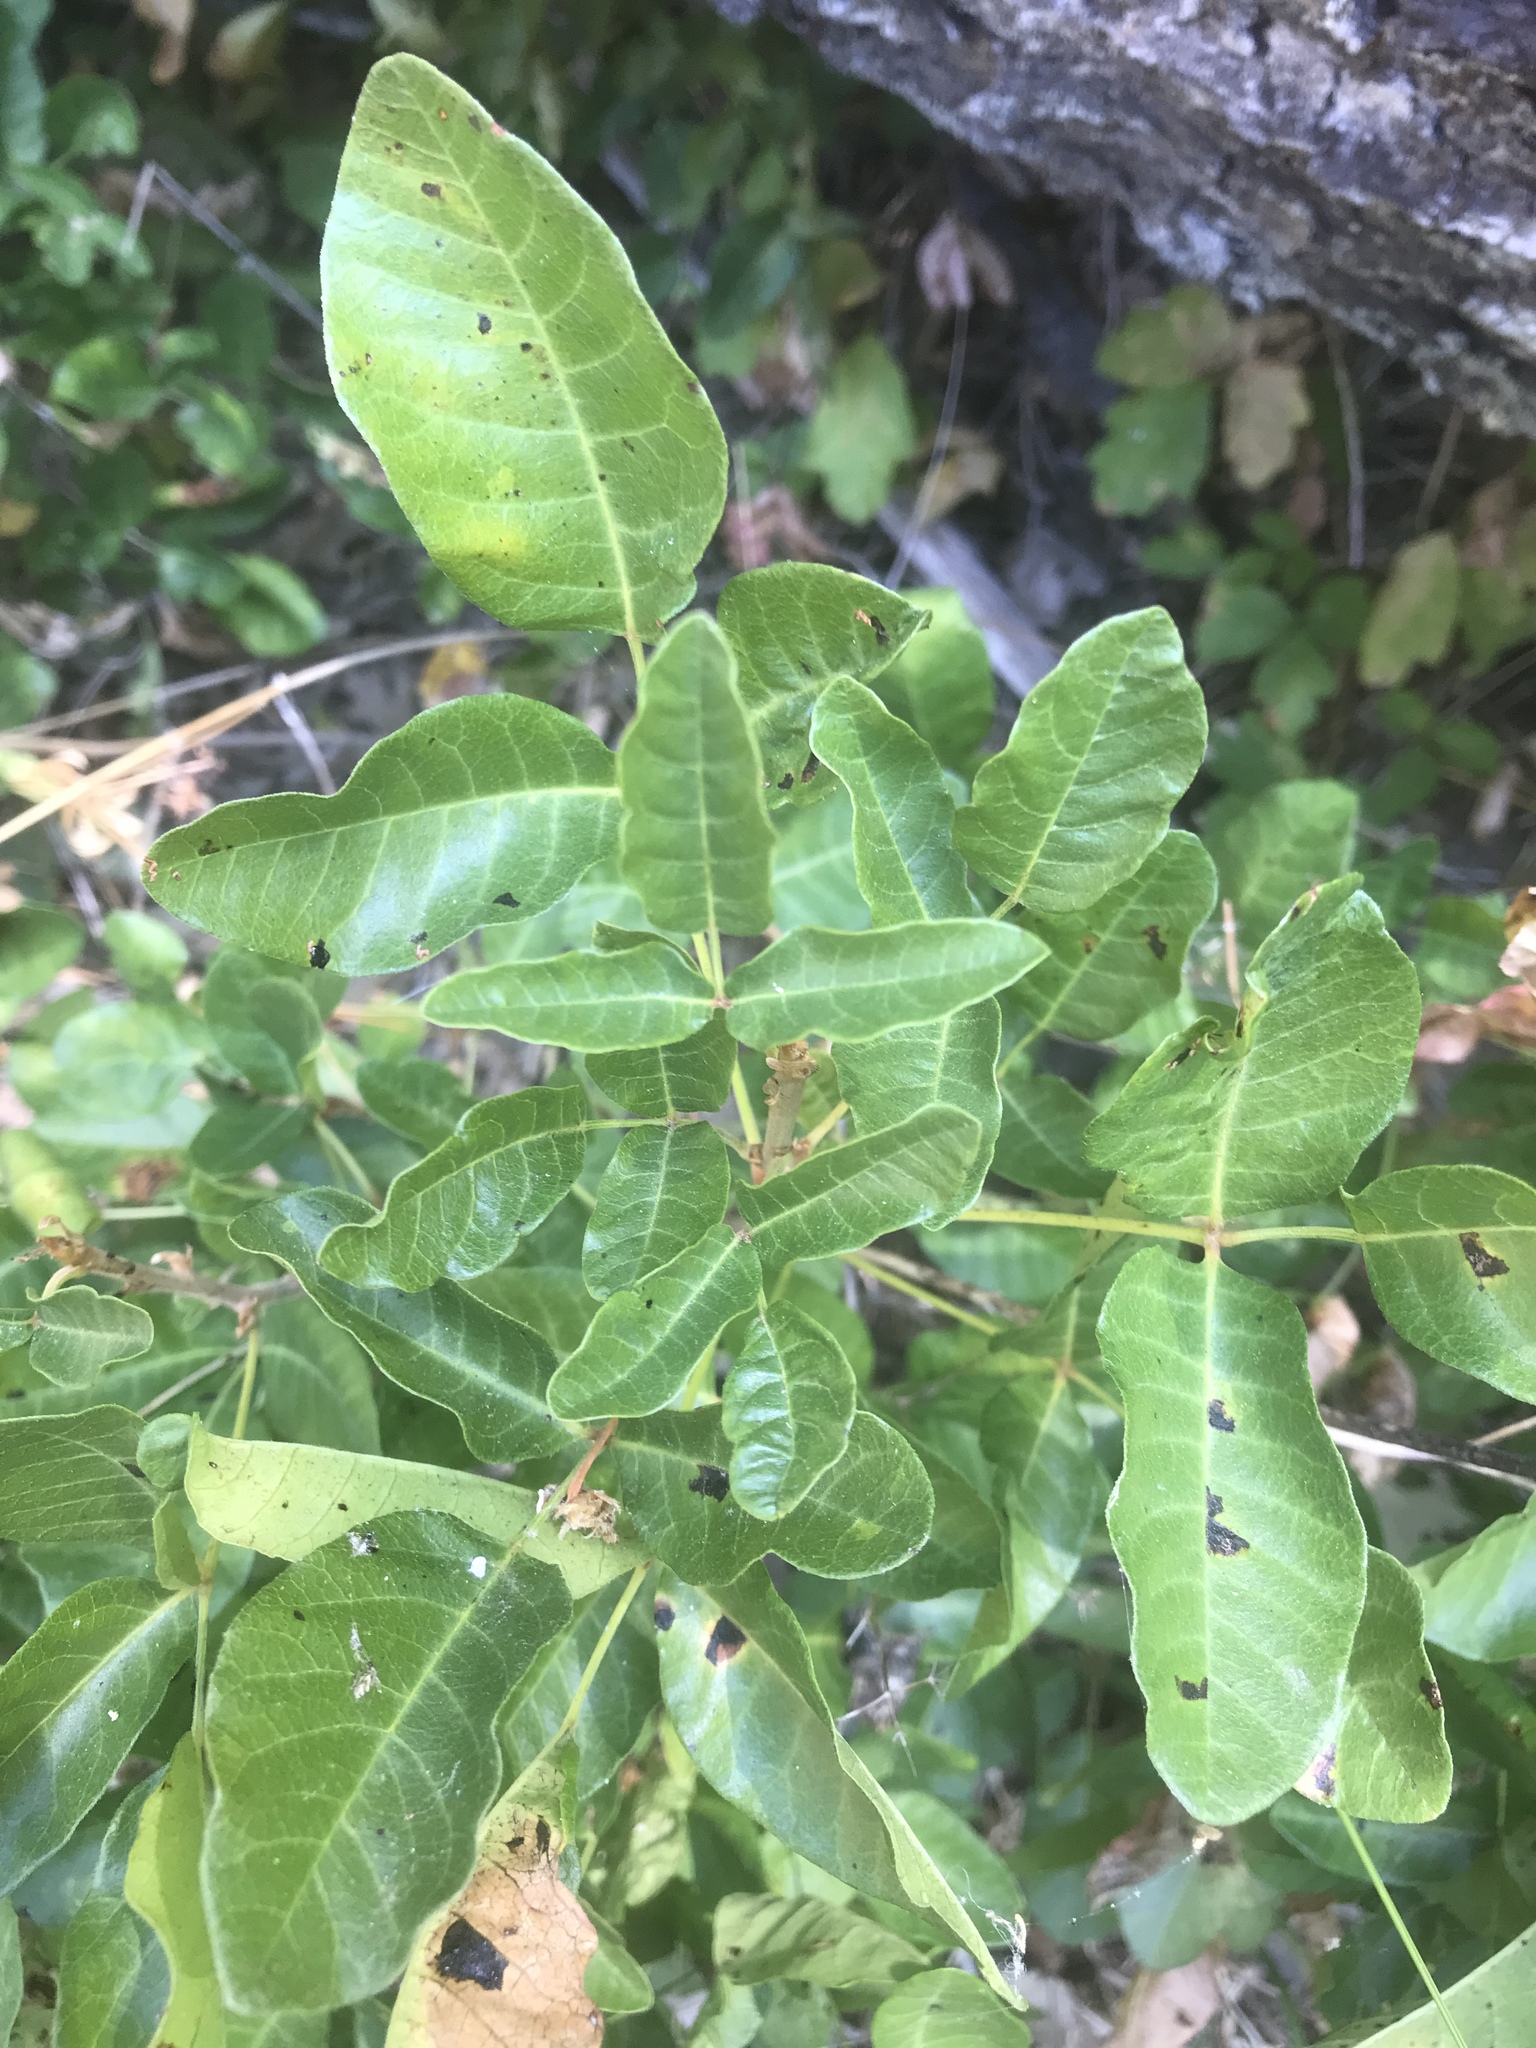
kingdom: Plantae
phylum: Tracheophyta
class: Magnoliopsida
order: Sapindales
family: Anacardiaceae
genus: Toxicodendron
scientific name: Toxicodendron diversilobum
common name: Pacific poison-oak
